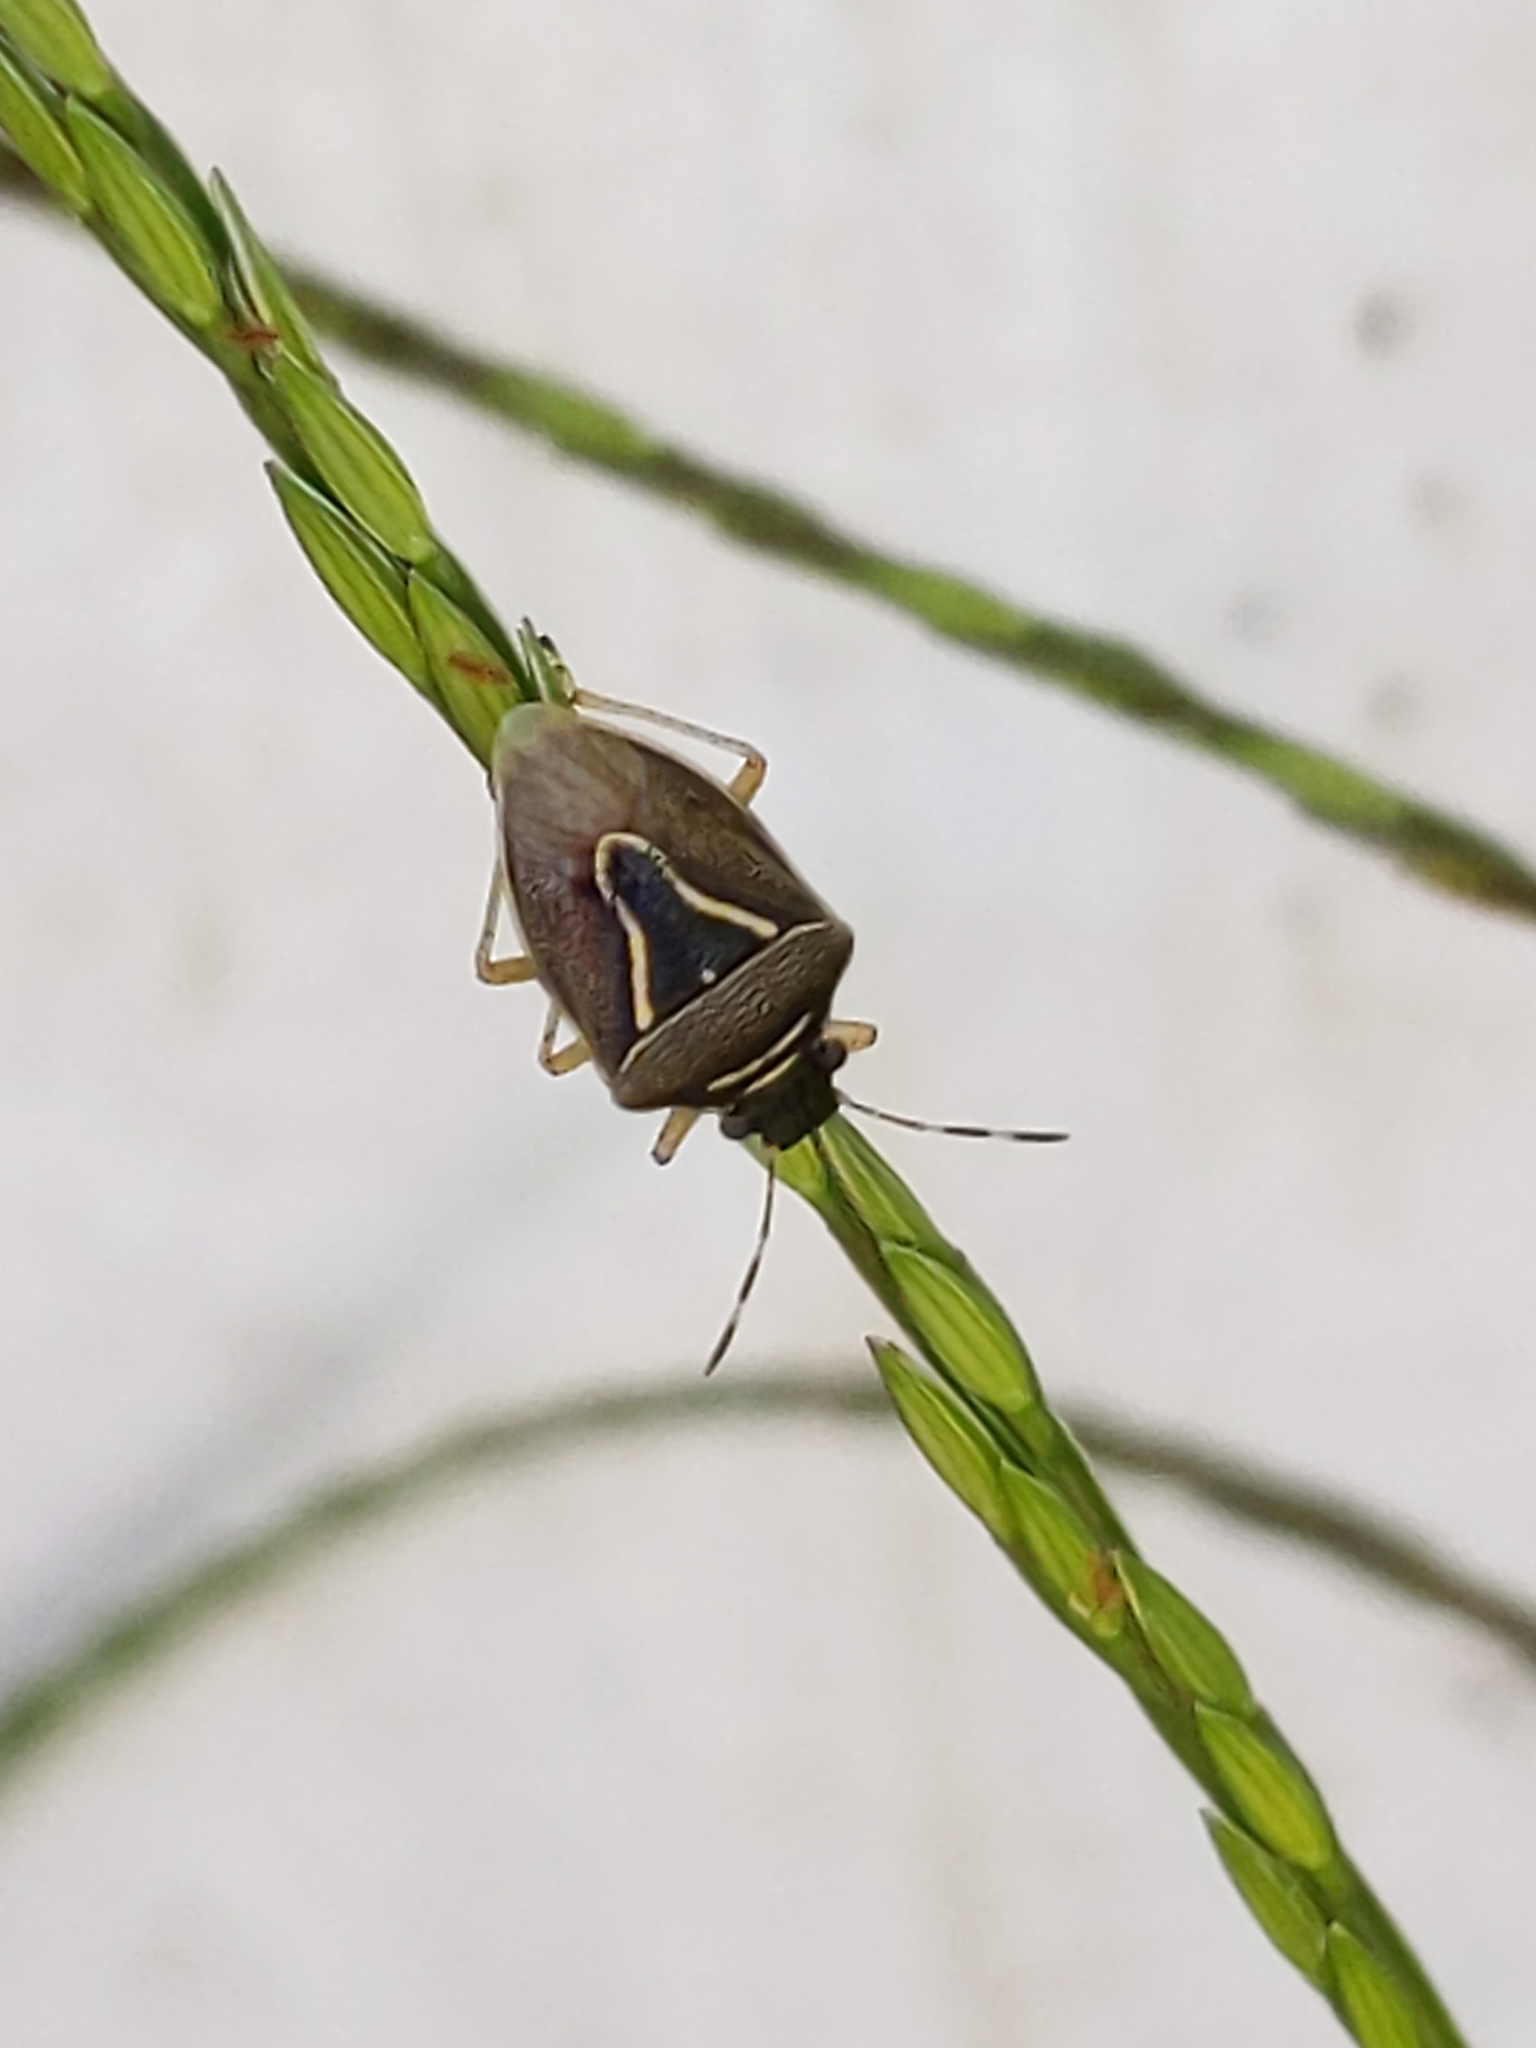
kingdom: Animalia
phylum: Arthropoda
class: Insecta
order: Hemiptera
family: Pentatomidae
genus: Mormidea
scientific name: Mormidea lugens
